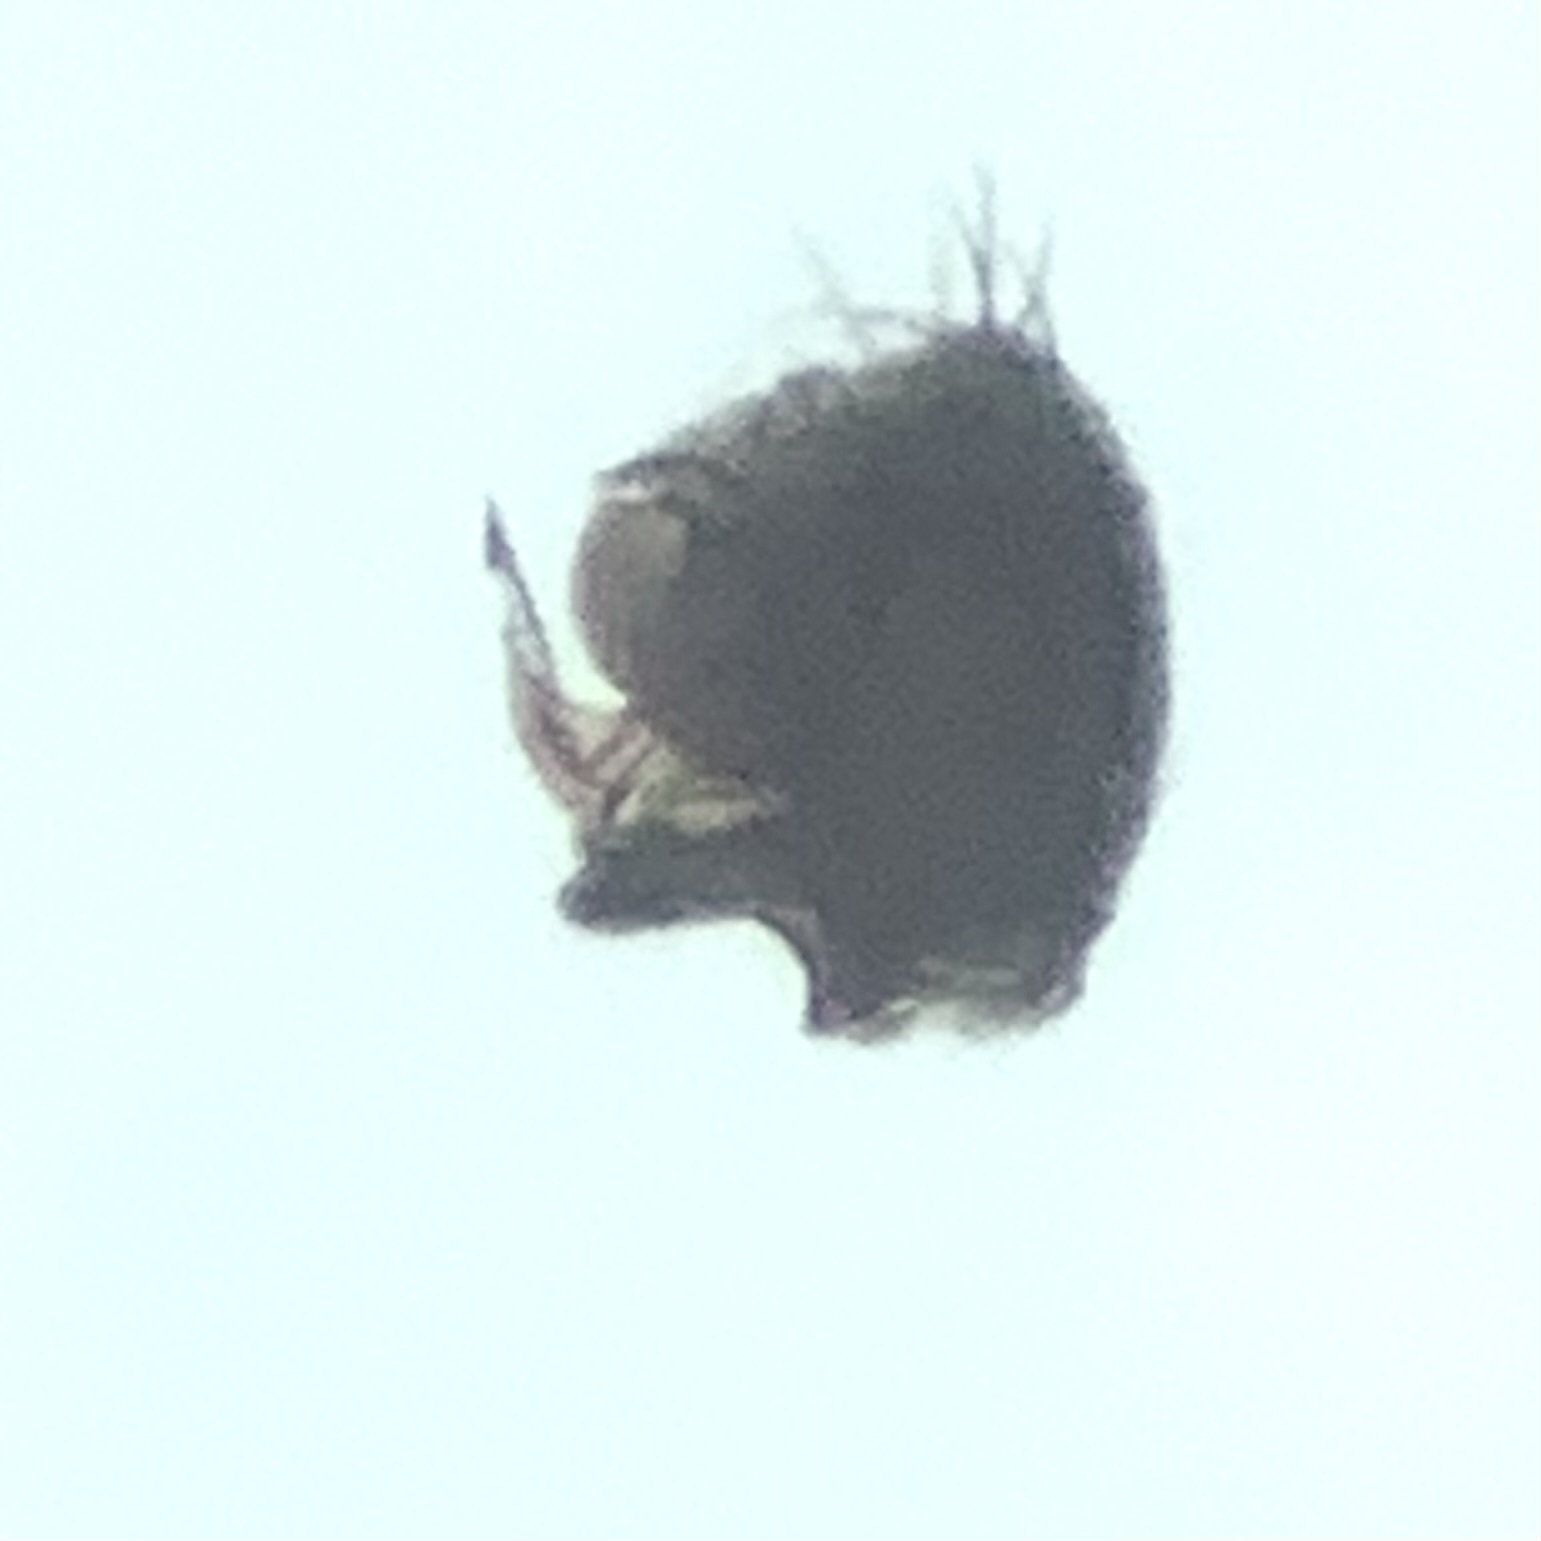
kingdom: Animalia
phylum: Arthropoda
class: Arachnida
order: Araneae
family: Linyphiidae
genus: Tenuiphantes
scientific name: Tenuiphantes flavipes
